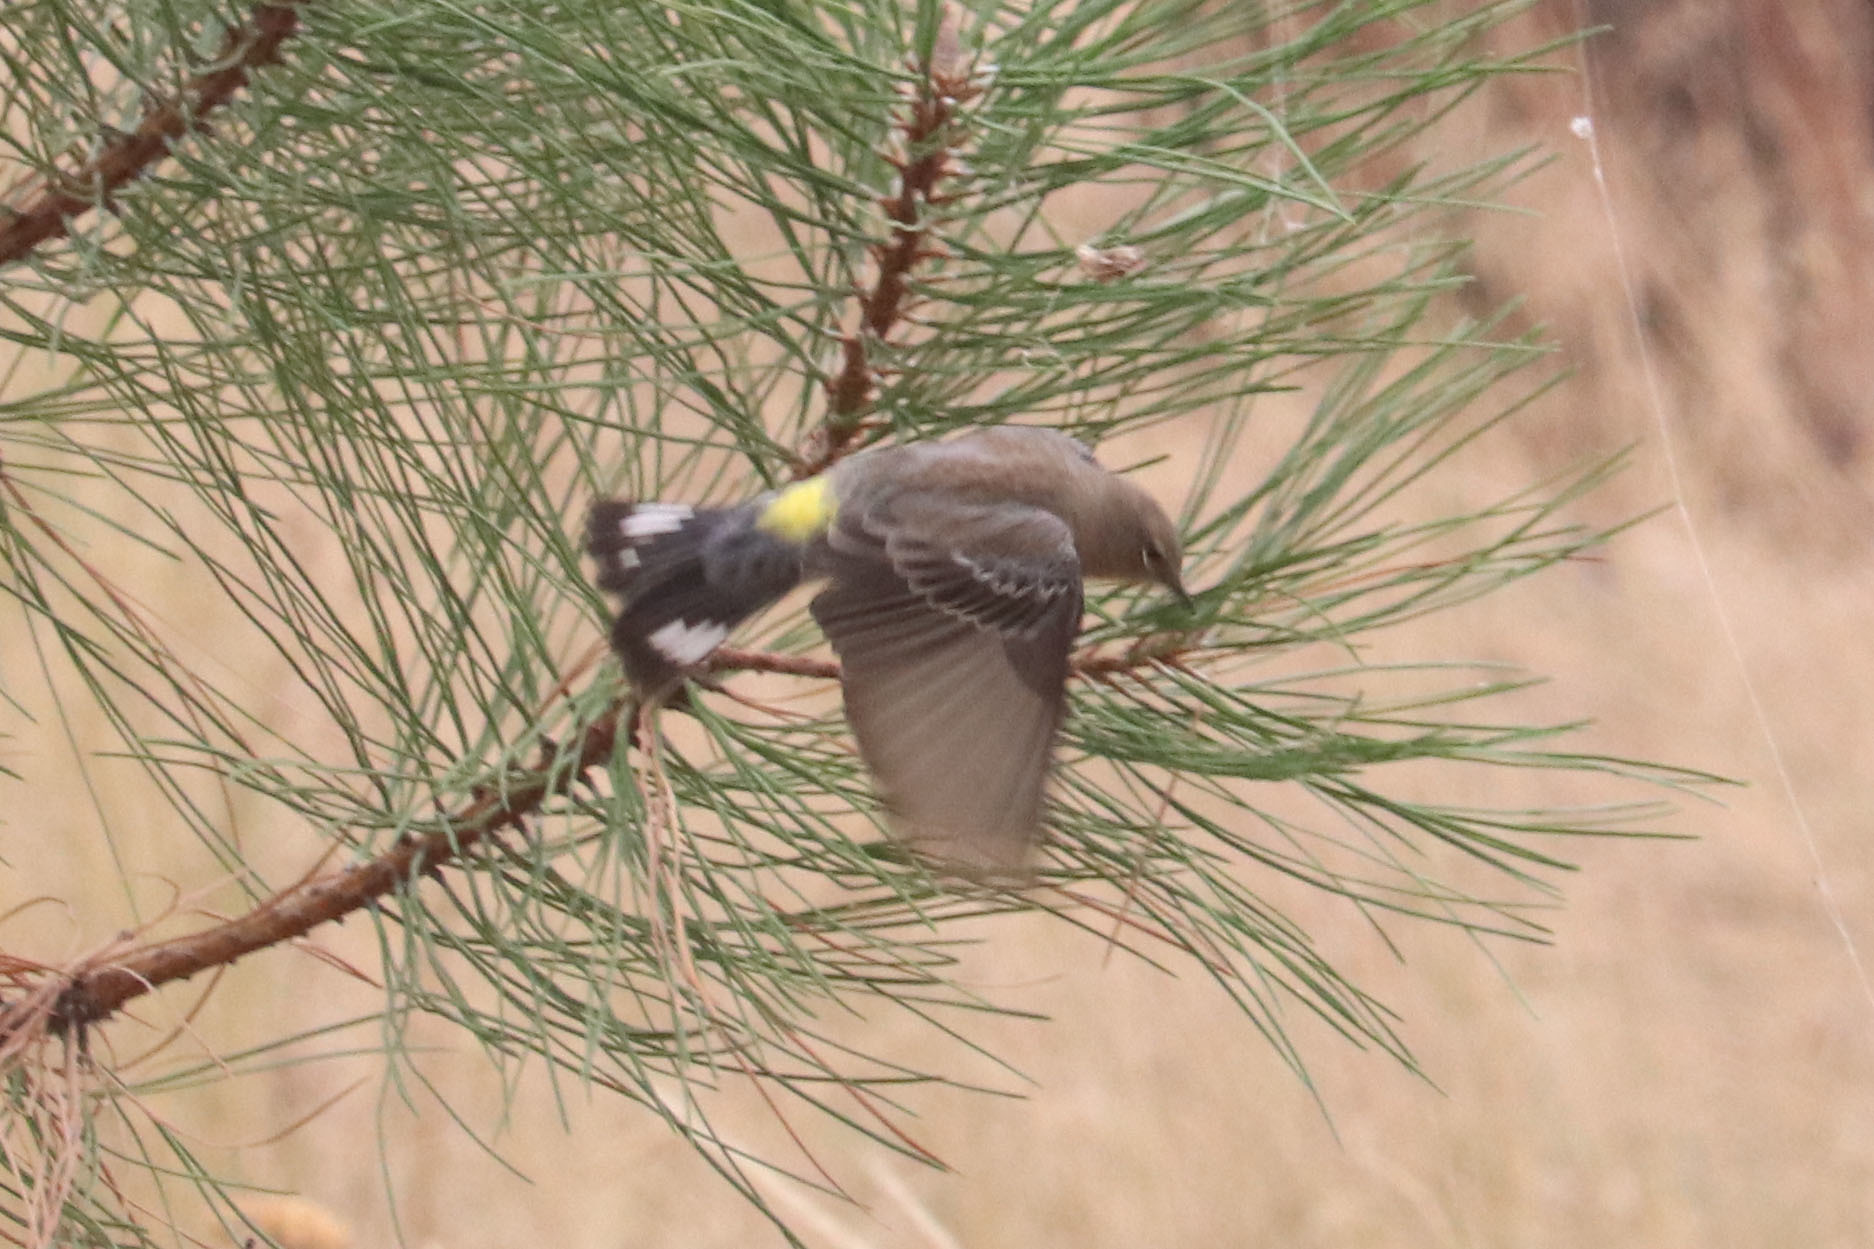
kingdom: Animalia
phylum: Chordata
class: Aves
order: Passeriformes
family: Parulidae
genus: Setophaga
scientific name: Setophaga coronata
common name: Myrtle warbler
